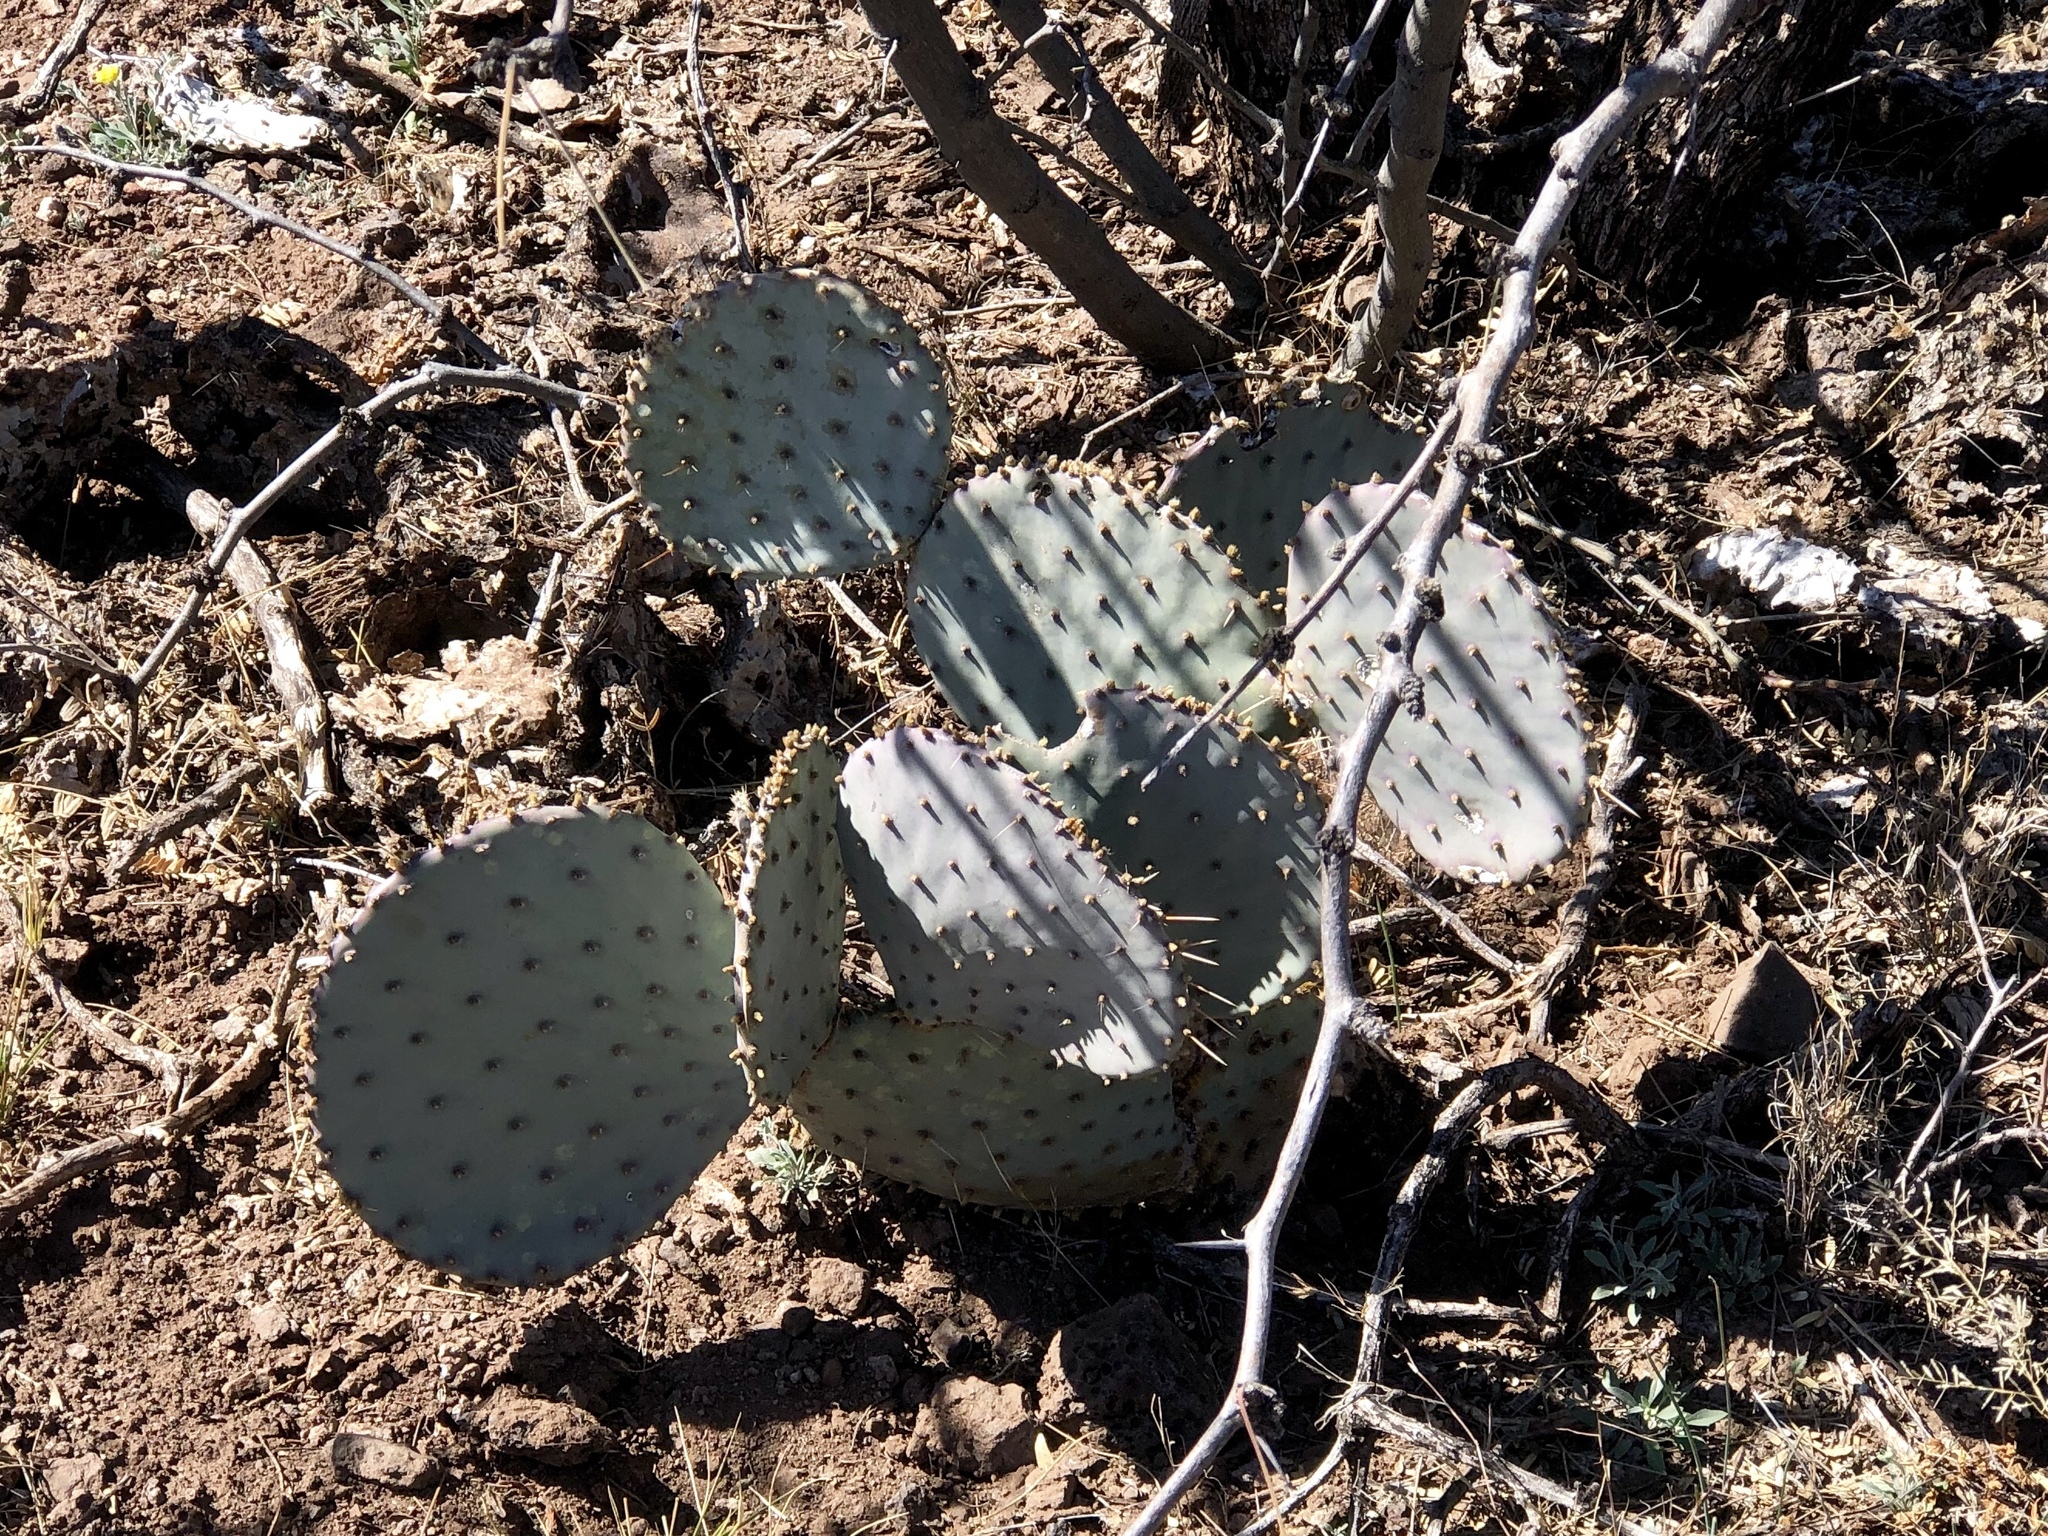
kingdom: Plantae
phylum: Tracheophyta
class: Magnoliopsida
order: Caryophyllales
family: Cactaceae
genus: Opuntia
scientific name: Opuntia gosseliniana
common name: Violet prickly-pear
